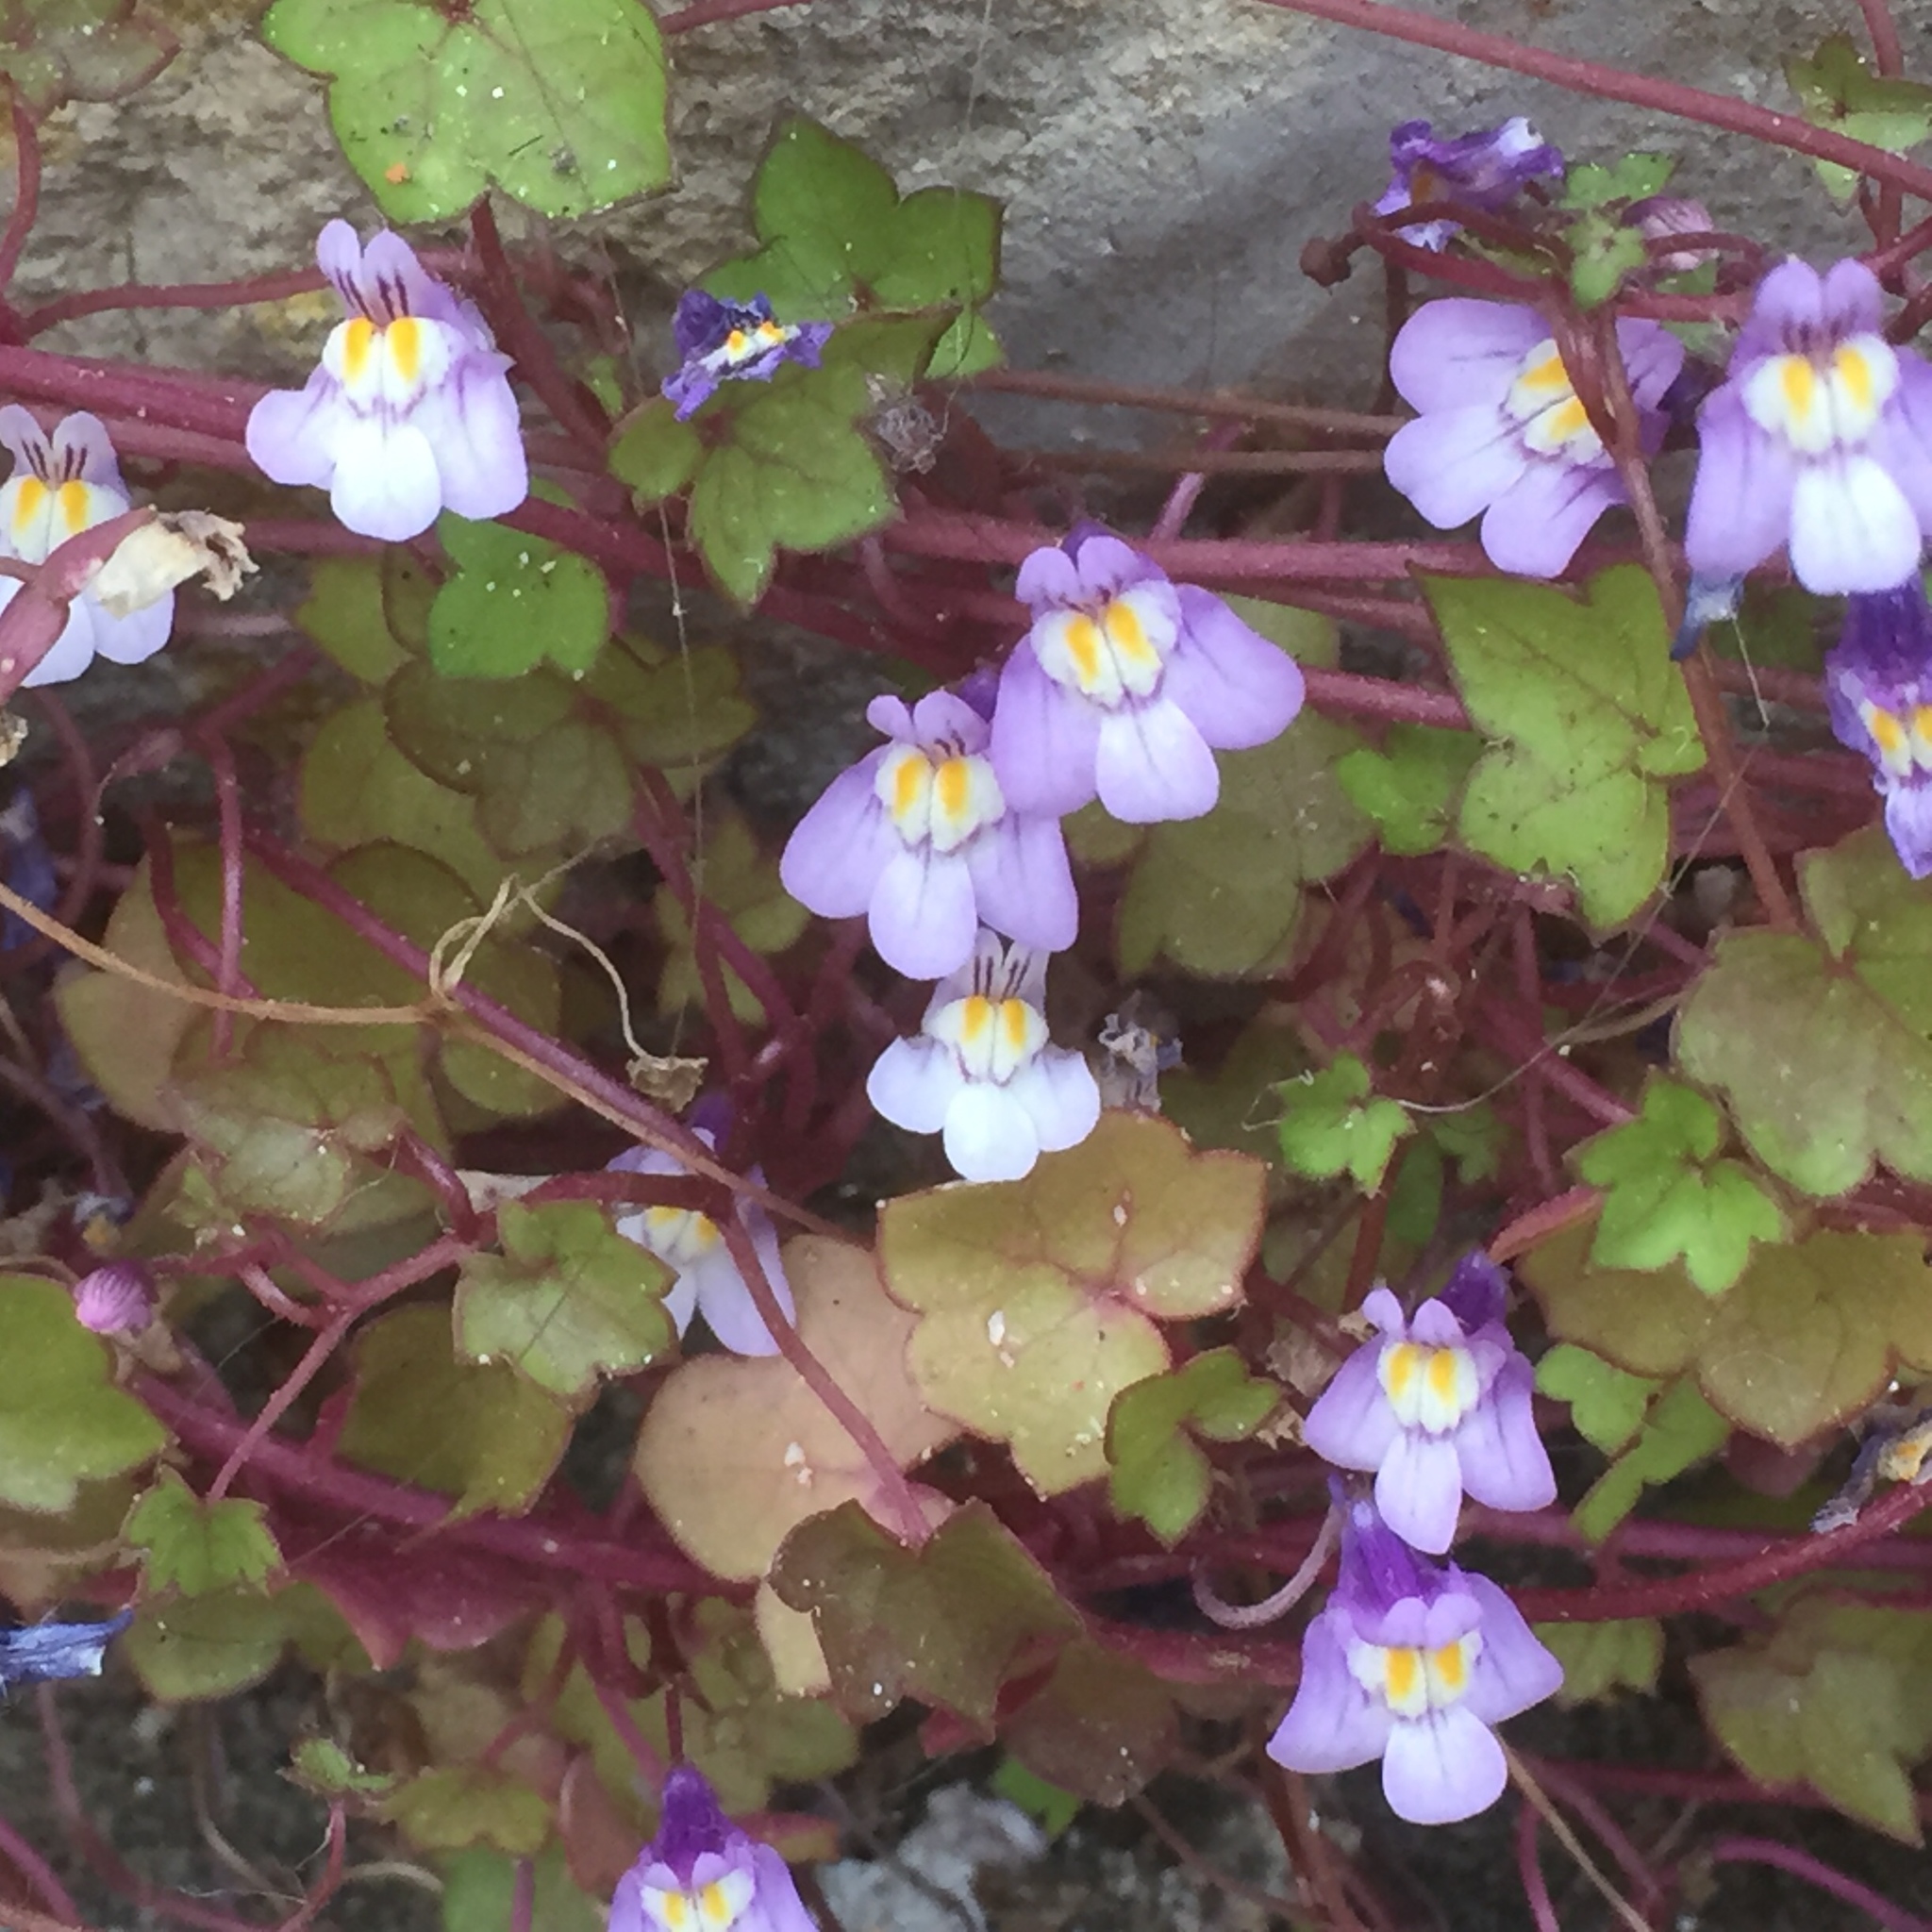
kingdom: Plantae
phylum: Tracheophyta
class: Magnoliopsida
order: Lamiales
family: Plantaginaceae
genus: Cymbalaria
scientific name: Cymbalaria muralis
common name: Ivy-leaved toadflax
